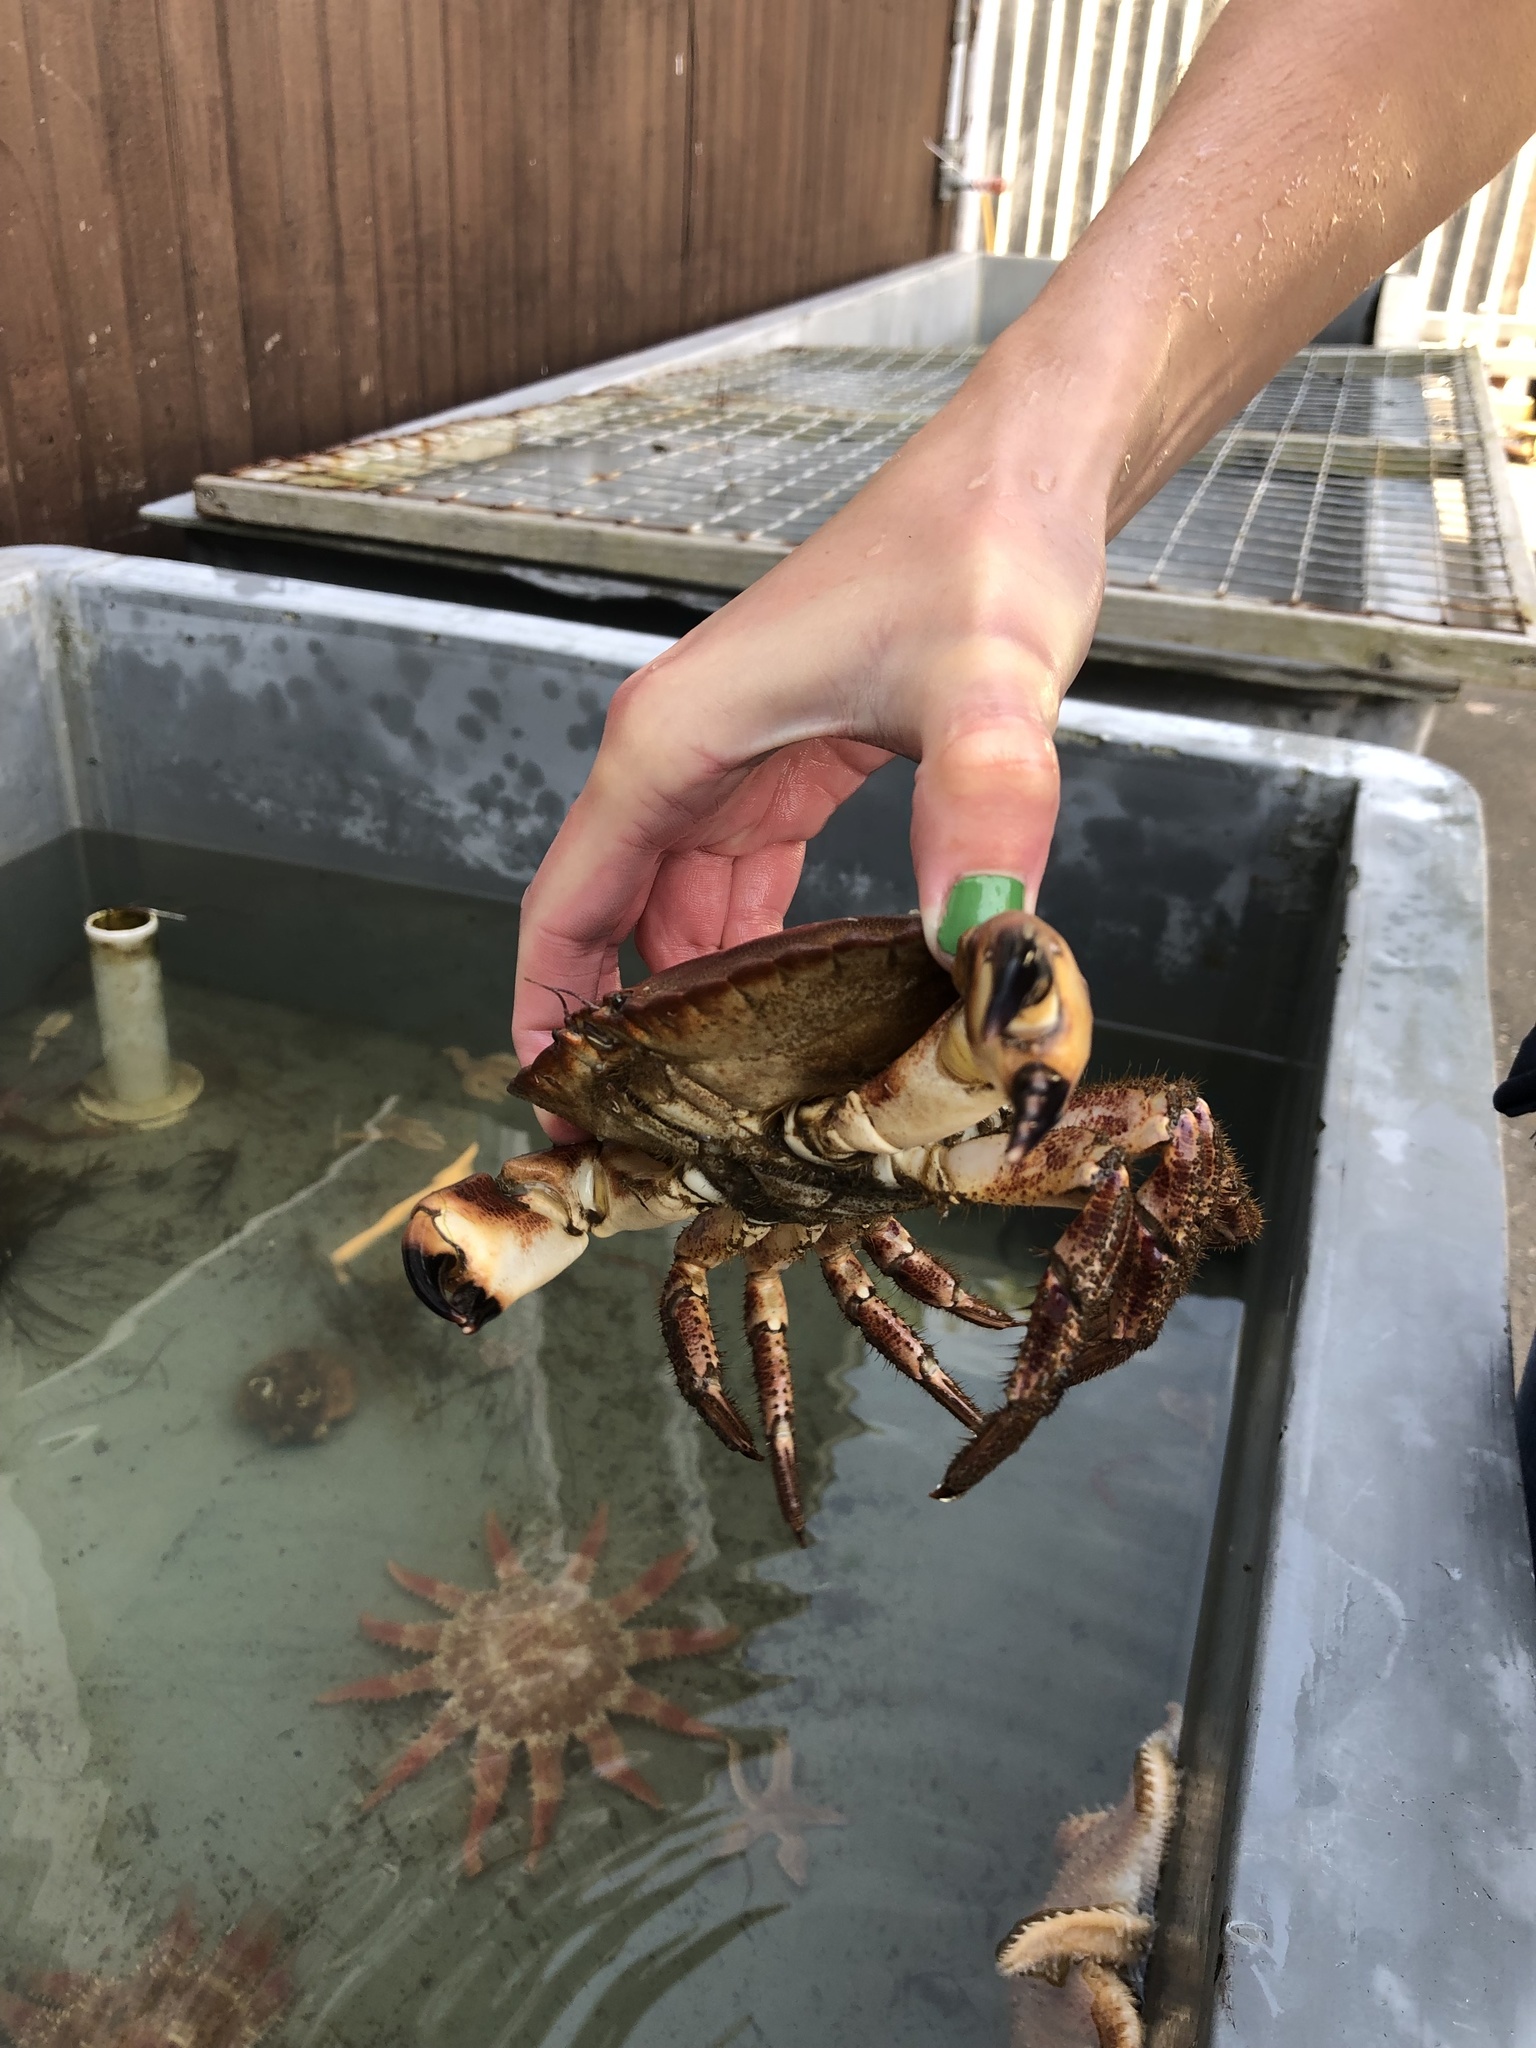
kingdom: Animalia
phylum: Arthropoda
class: Malacostraca
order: Decapoda
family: Cancridae
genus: Cancer
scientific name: Cancer pagurus
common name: Edible crab
